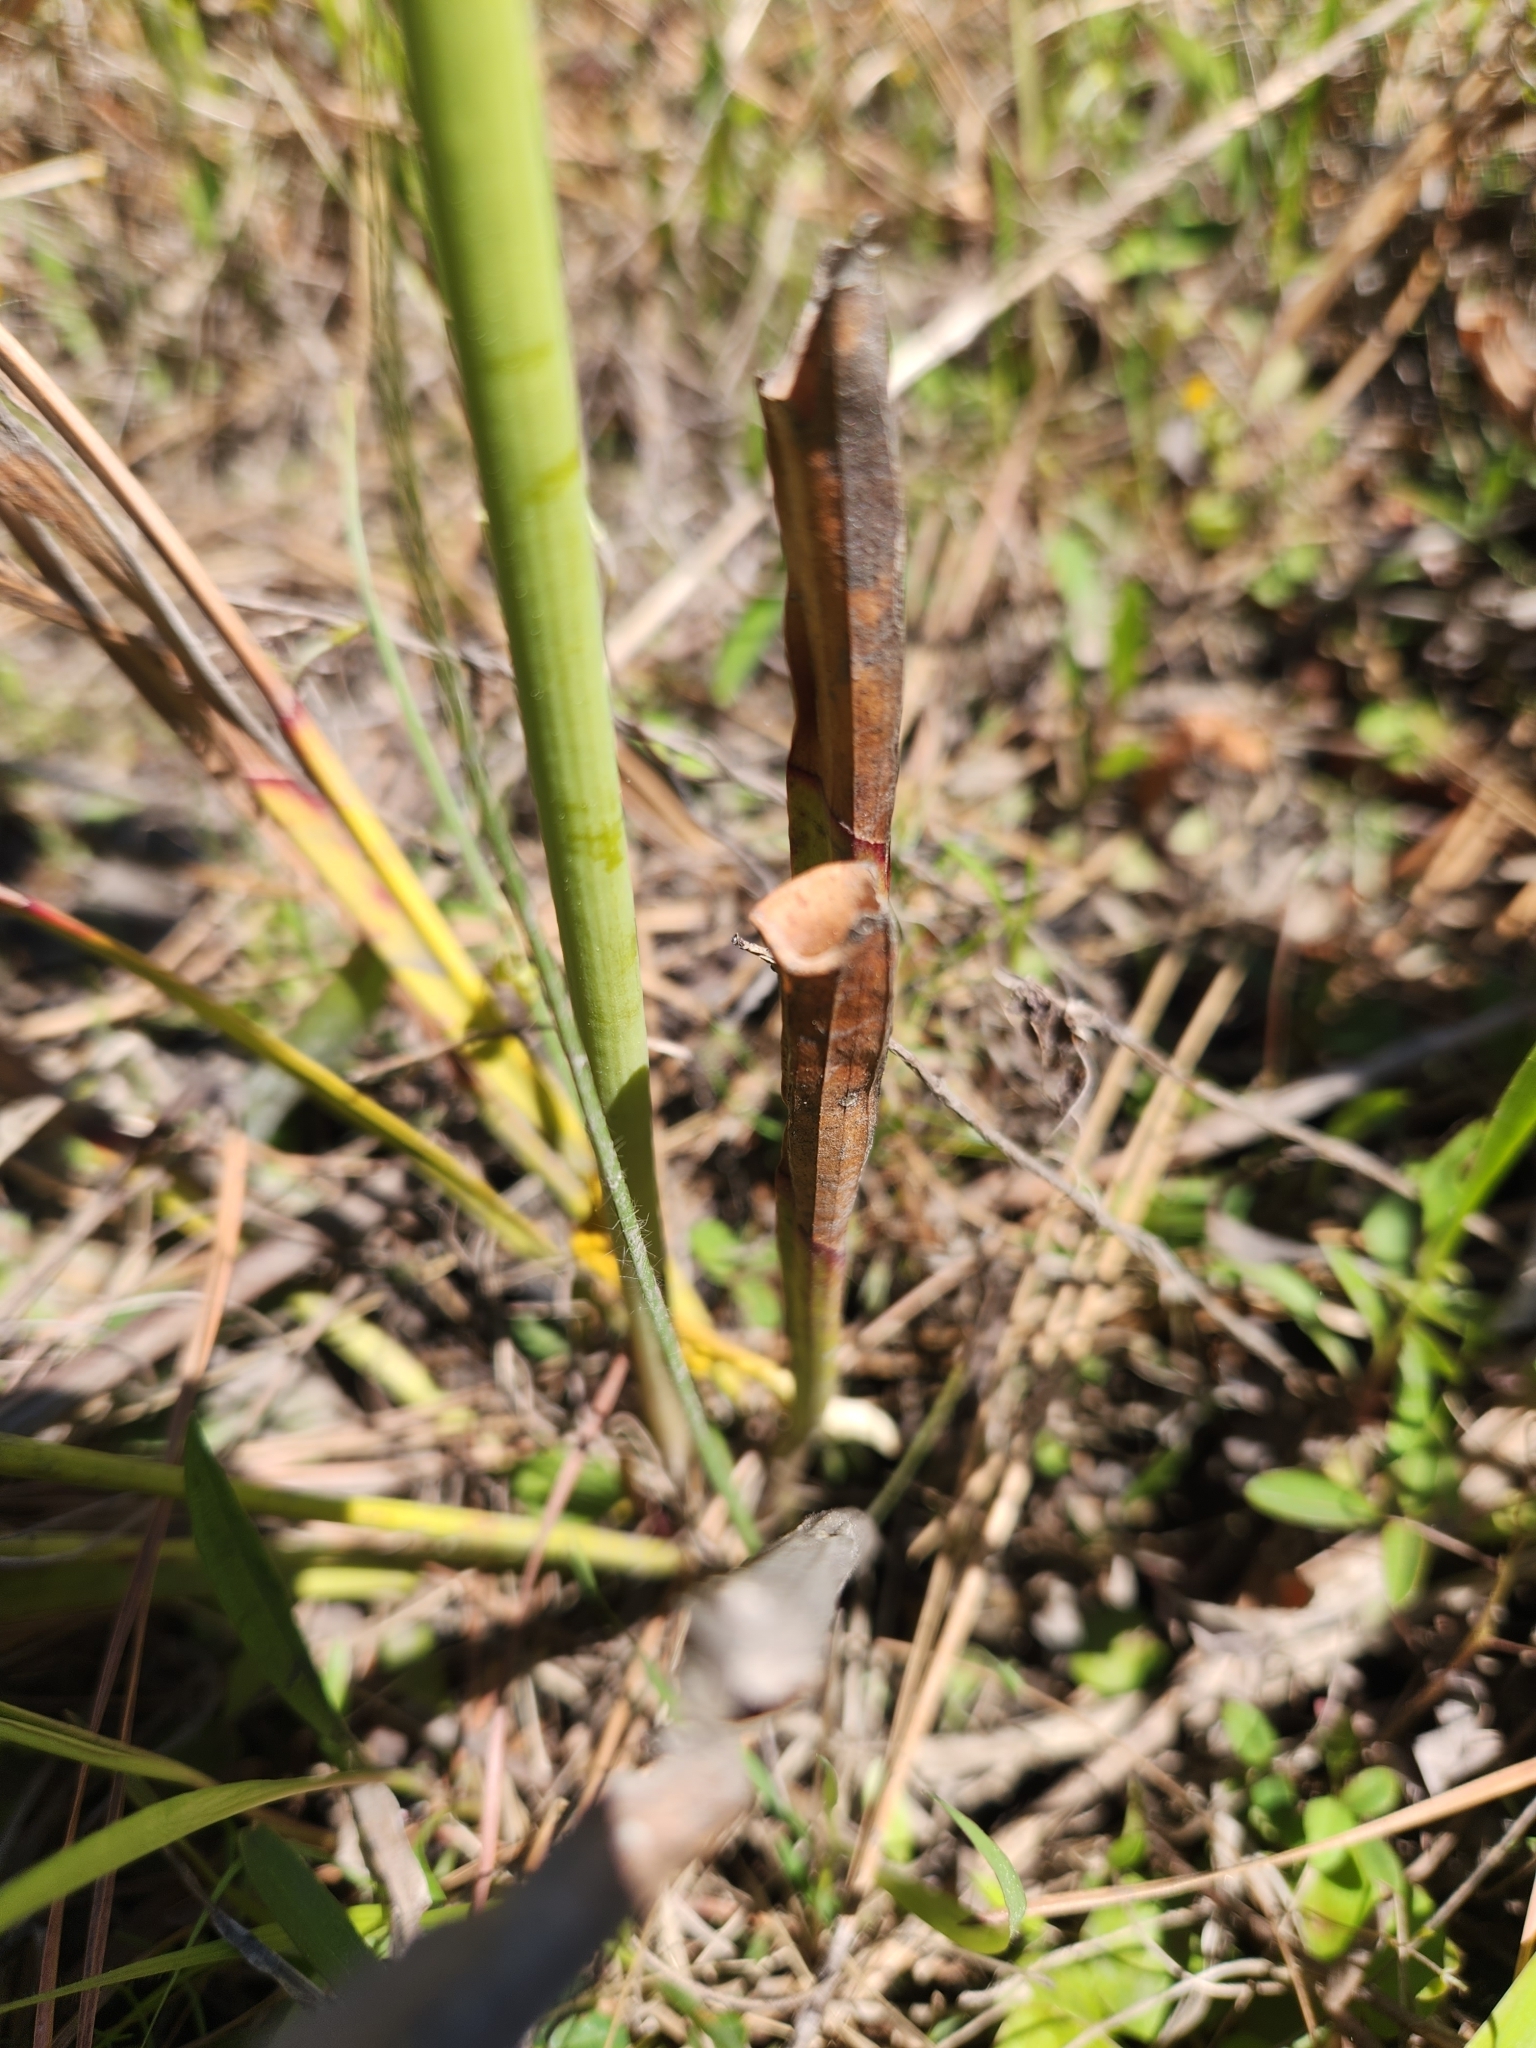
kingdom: Plantae
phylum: Tracheophyta
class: Magnoliopsida
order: Ericales
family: Sarraceniaceae
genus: Sarracenia
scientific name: Sarracenia flava
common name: Trumpets
